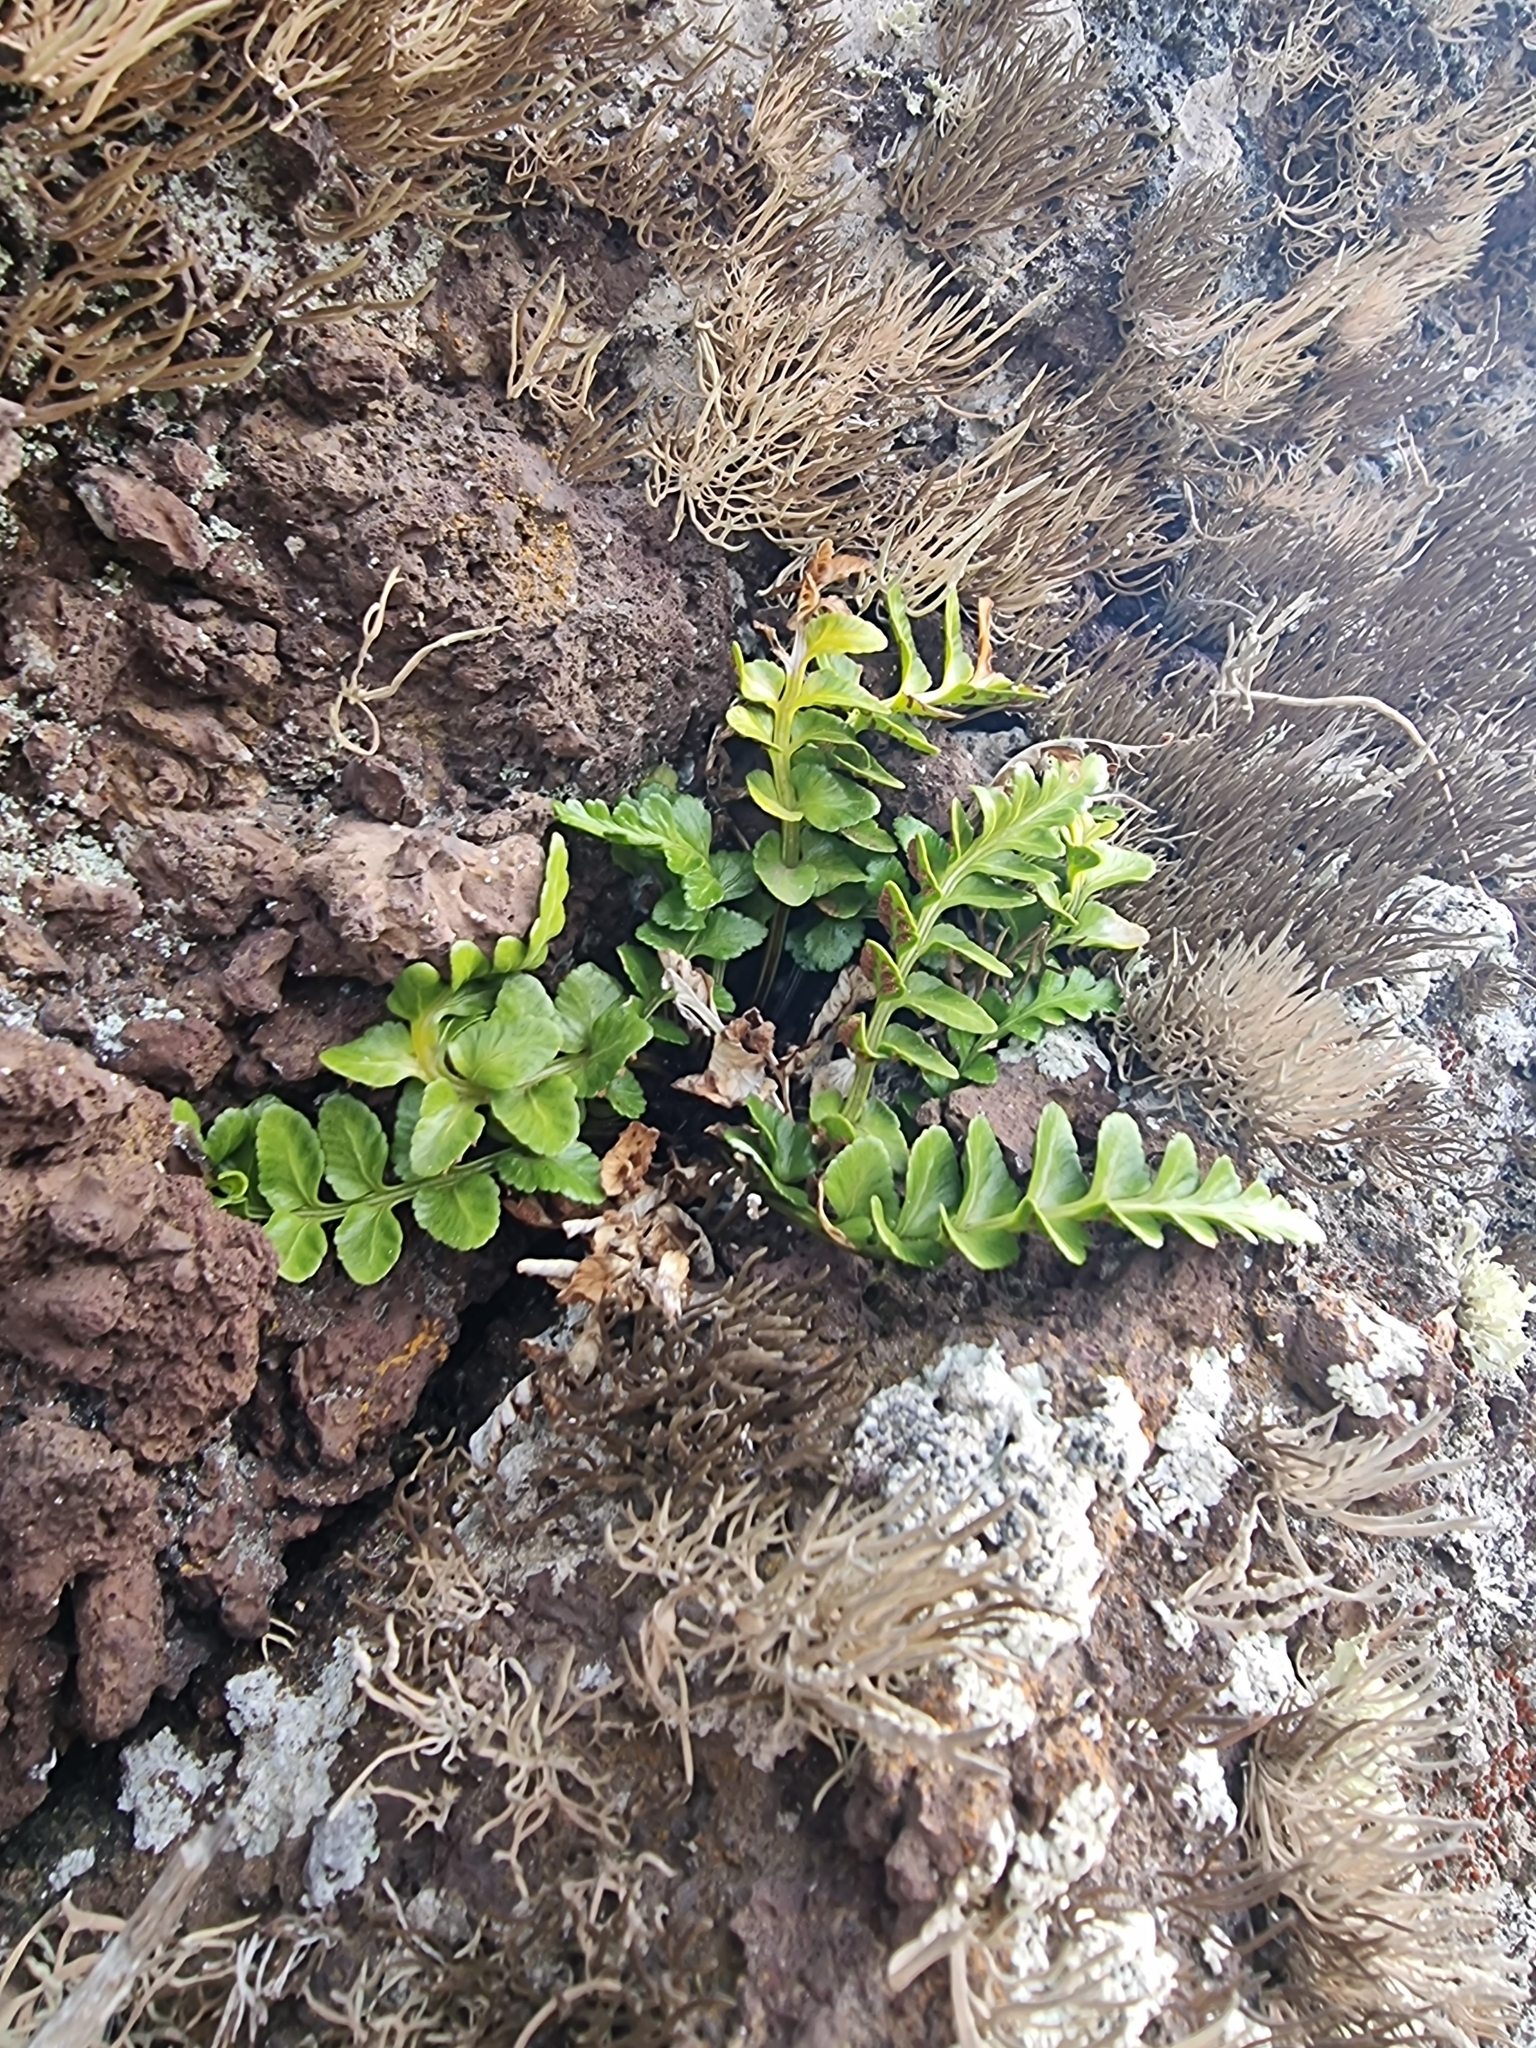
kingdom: Plantae
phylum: Tracheophyta
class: Polypodiopsida
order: Polypodiales
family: Aspleniaceae
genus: Asplenium
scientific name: Asplenium marinum
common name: Sea spleenwort
